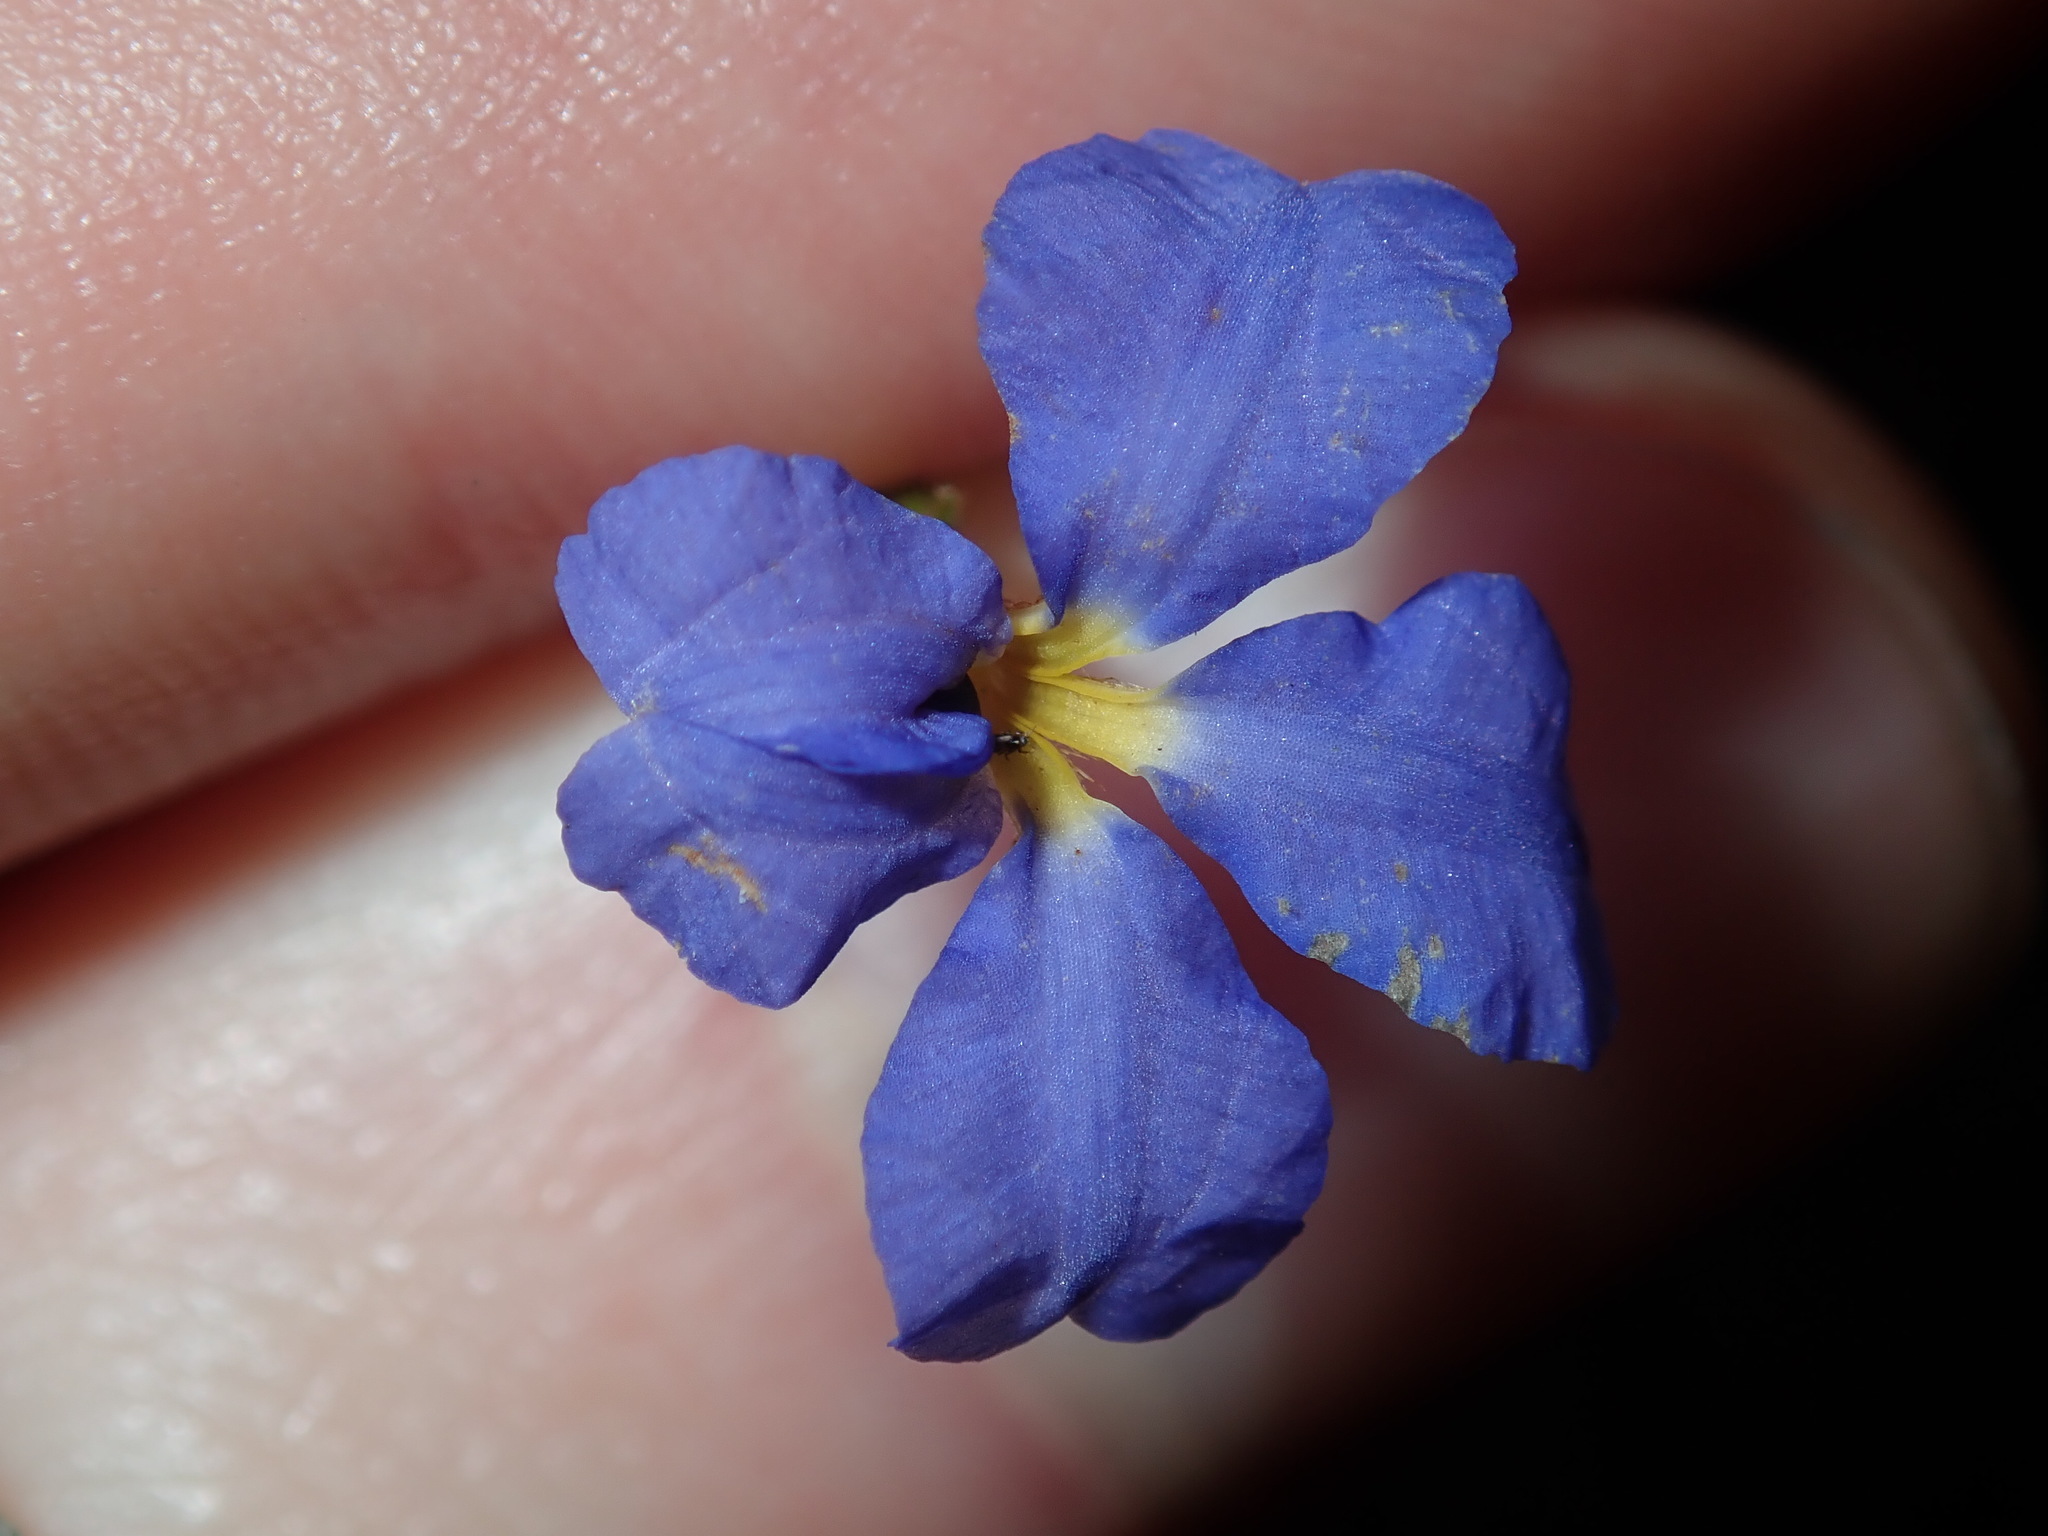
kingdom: Plantae
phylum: Tracheophyta
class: Magnoliopsida
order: Asterales
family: Goodeniaceae
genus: Dampiera
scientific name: Dampiera stricta
